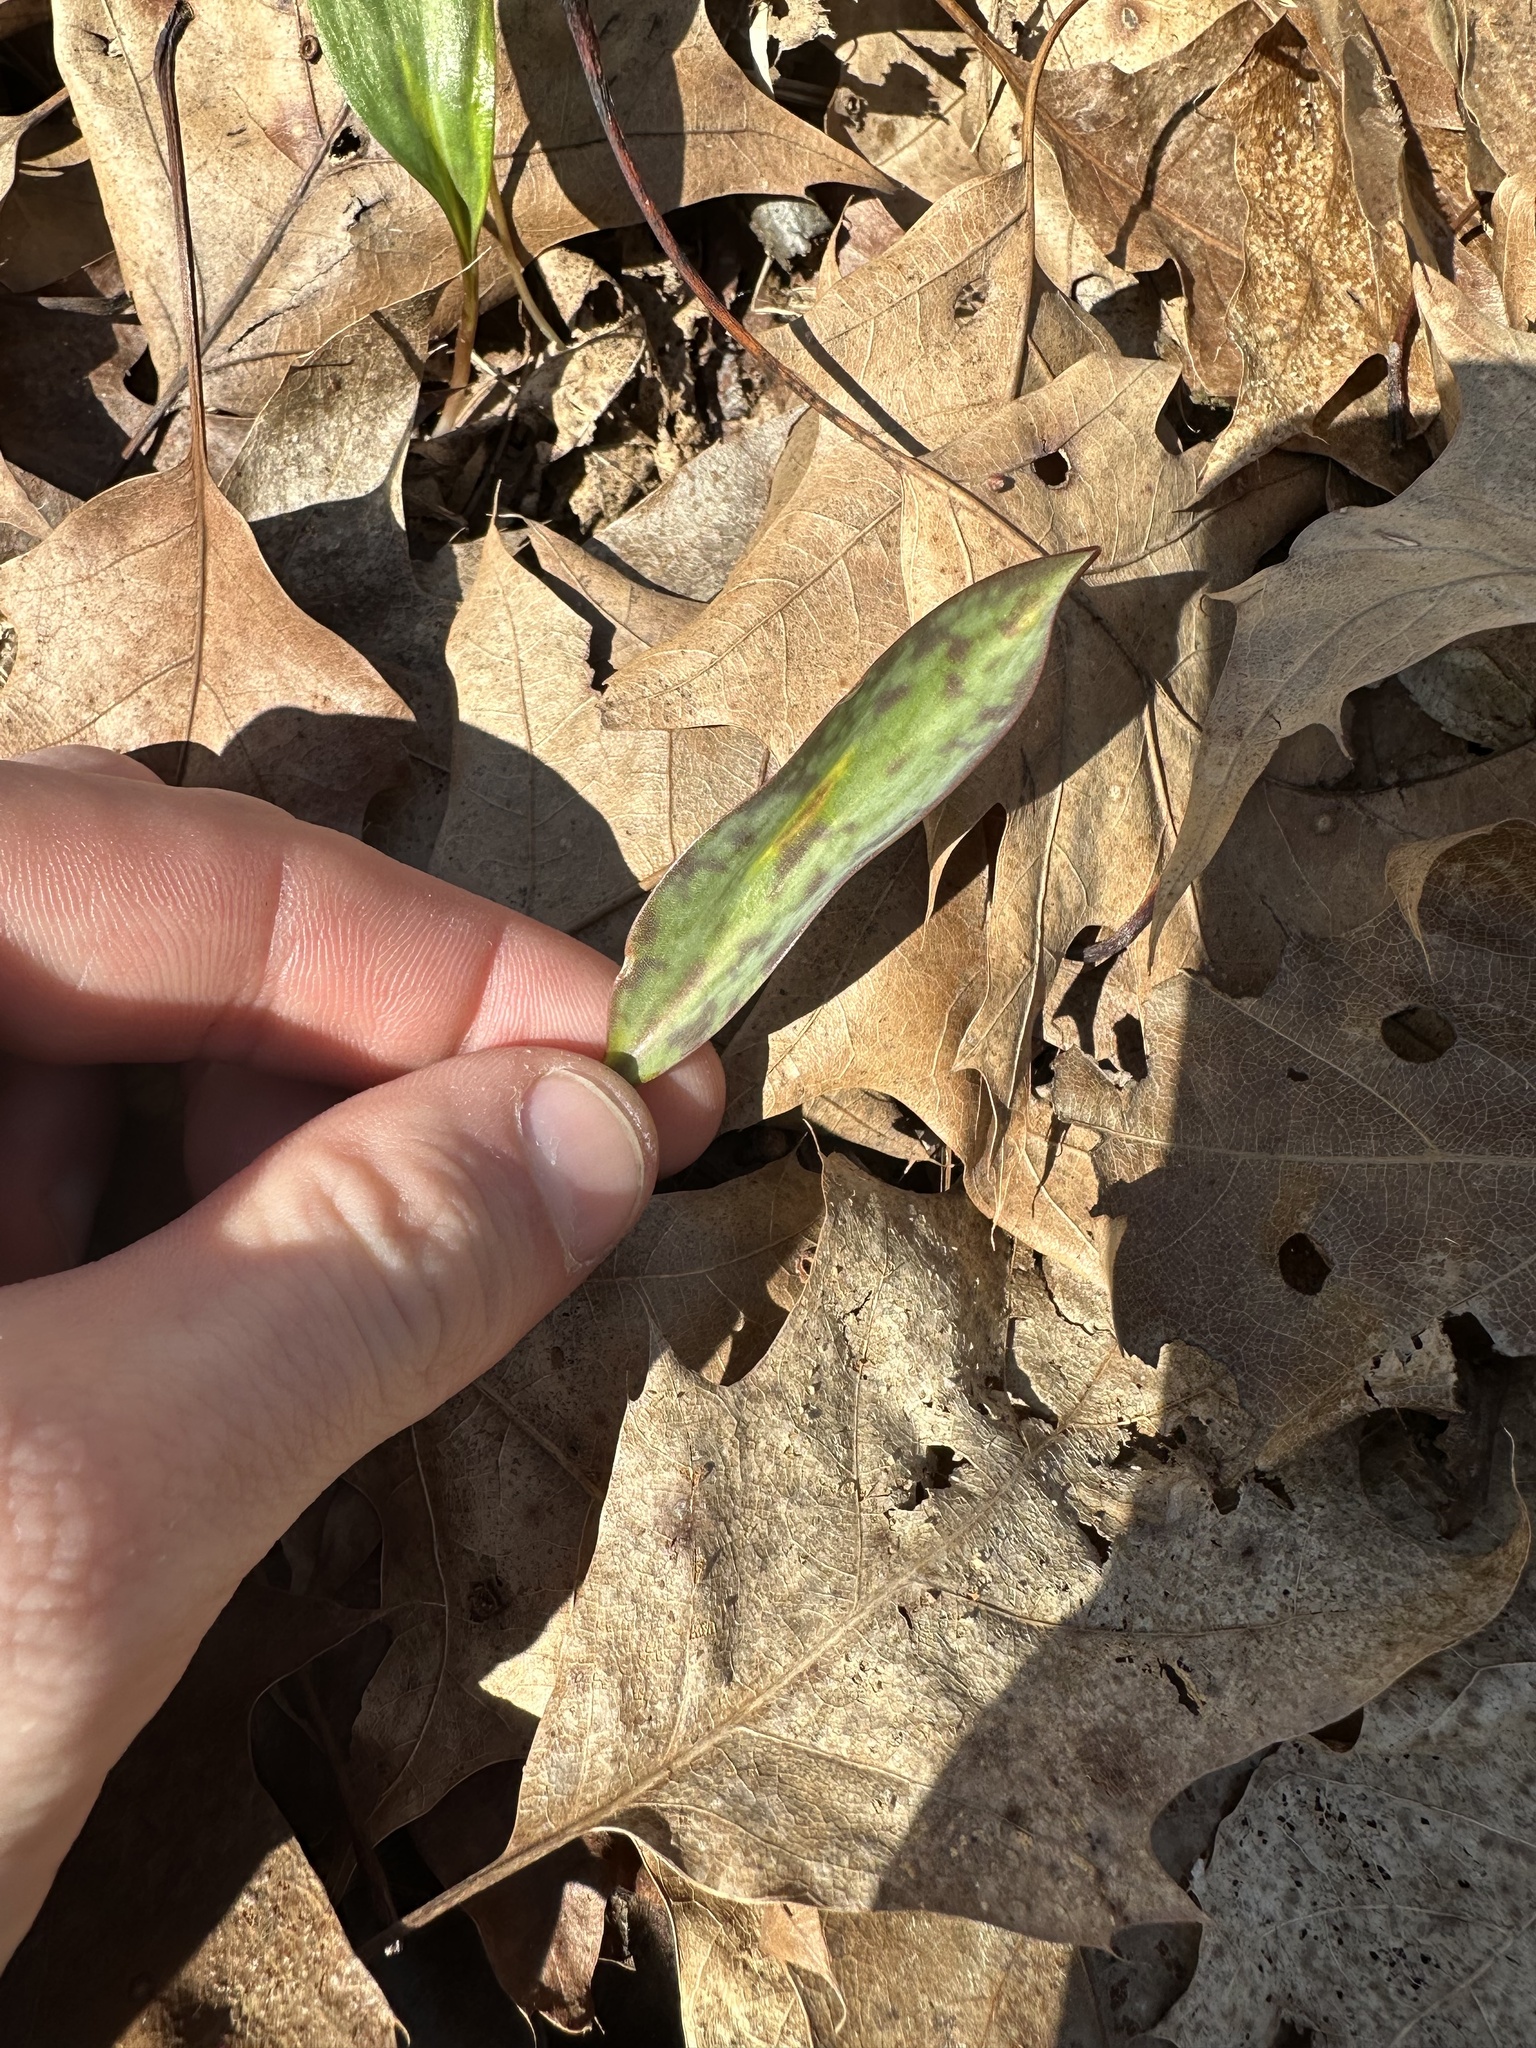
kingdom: Plantae
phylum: Tracheophyta
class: Liliopsida
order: Liliales
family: Liliaceae
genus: Erythronium
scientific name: Erythronium americanum
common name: Yellow adder's-tongue
